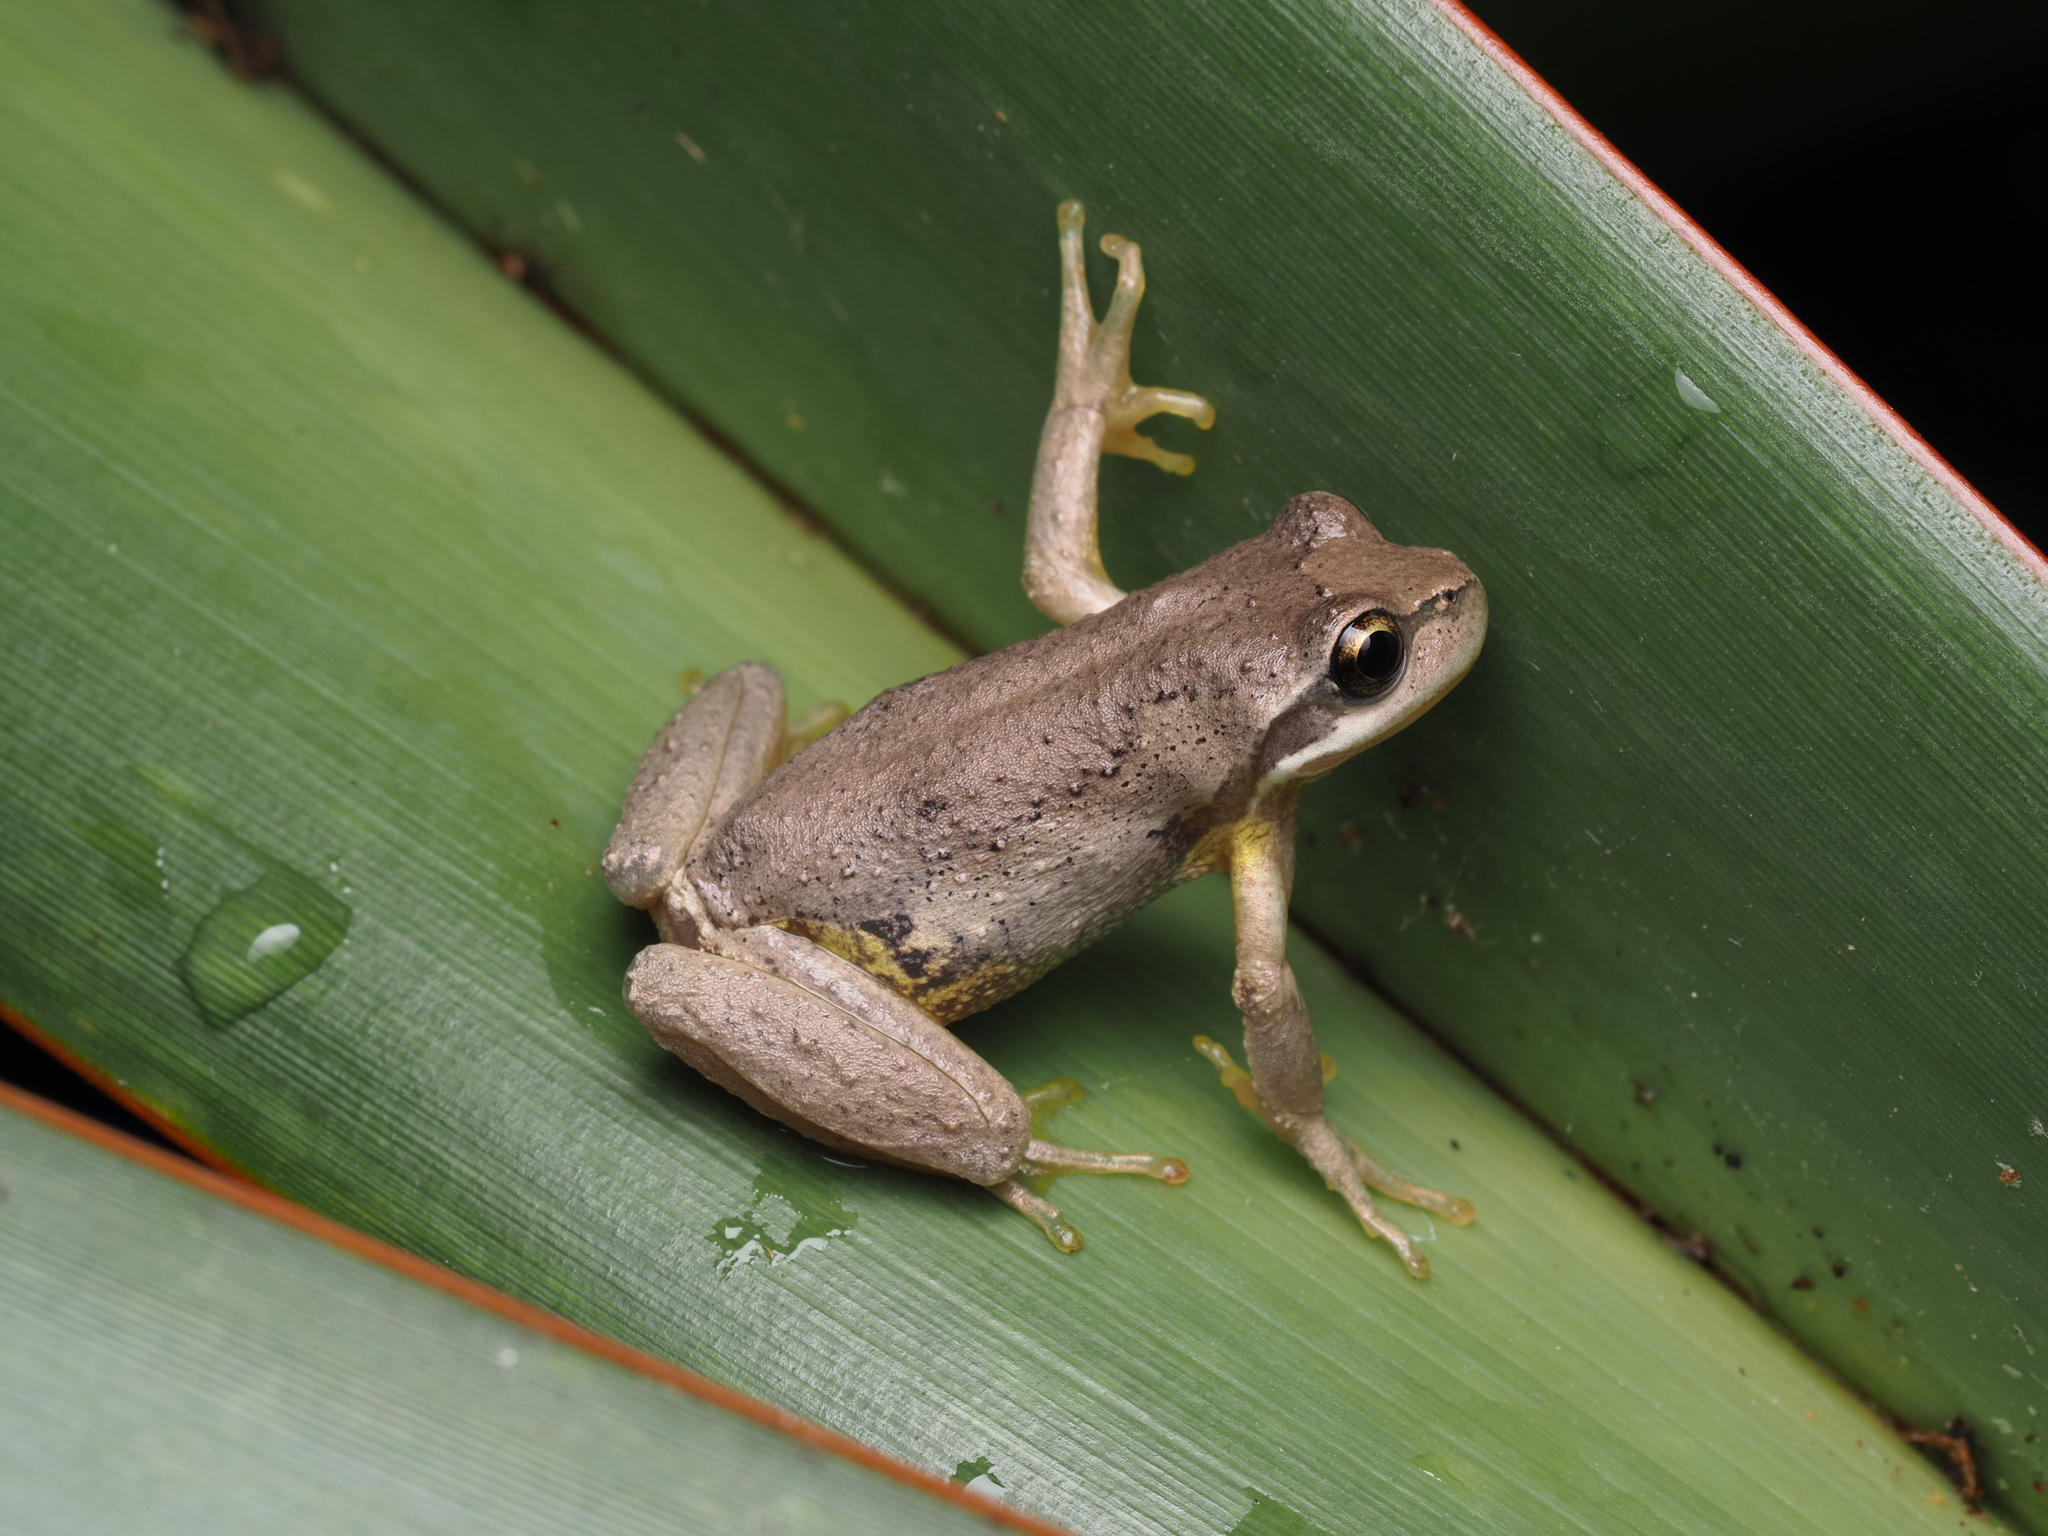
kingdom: Animalia
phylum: Chordata
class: Amphibia
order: Anura
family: Pelodryadidae
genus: Litoria
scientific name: Litoria ewingii
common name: Southern brown tree frog
